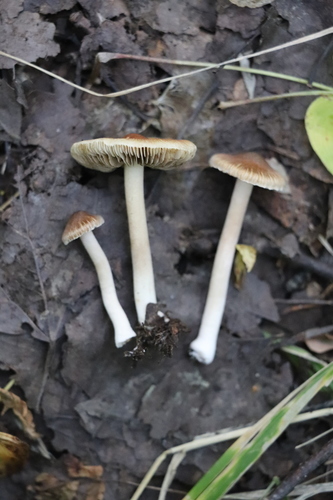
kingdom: Fungi
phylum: Basidiomycota
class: Agaricomycetes
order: Agaricales
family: Inocybaceae
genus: Inocybe
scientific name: Inocybe
